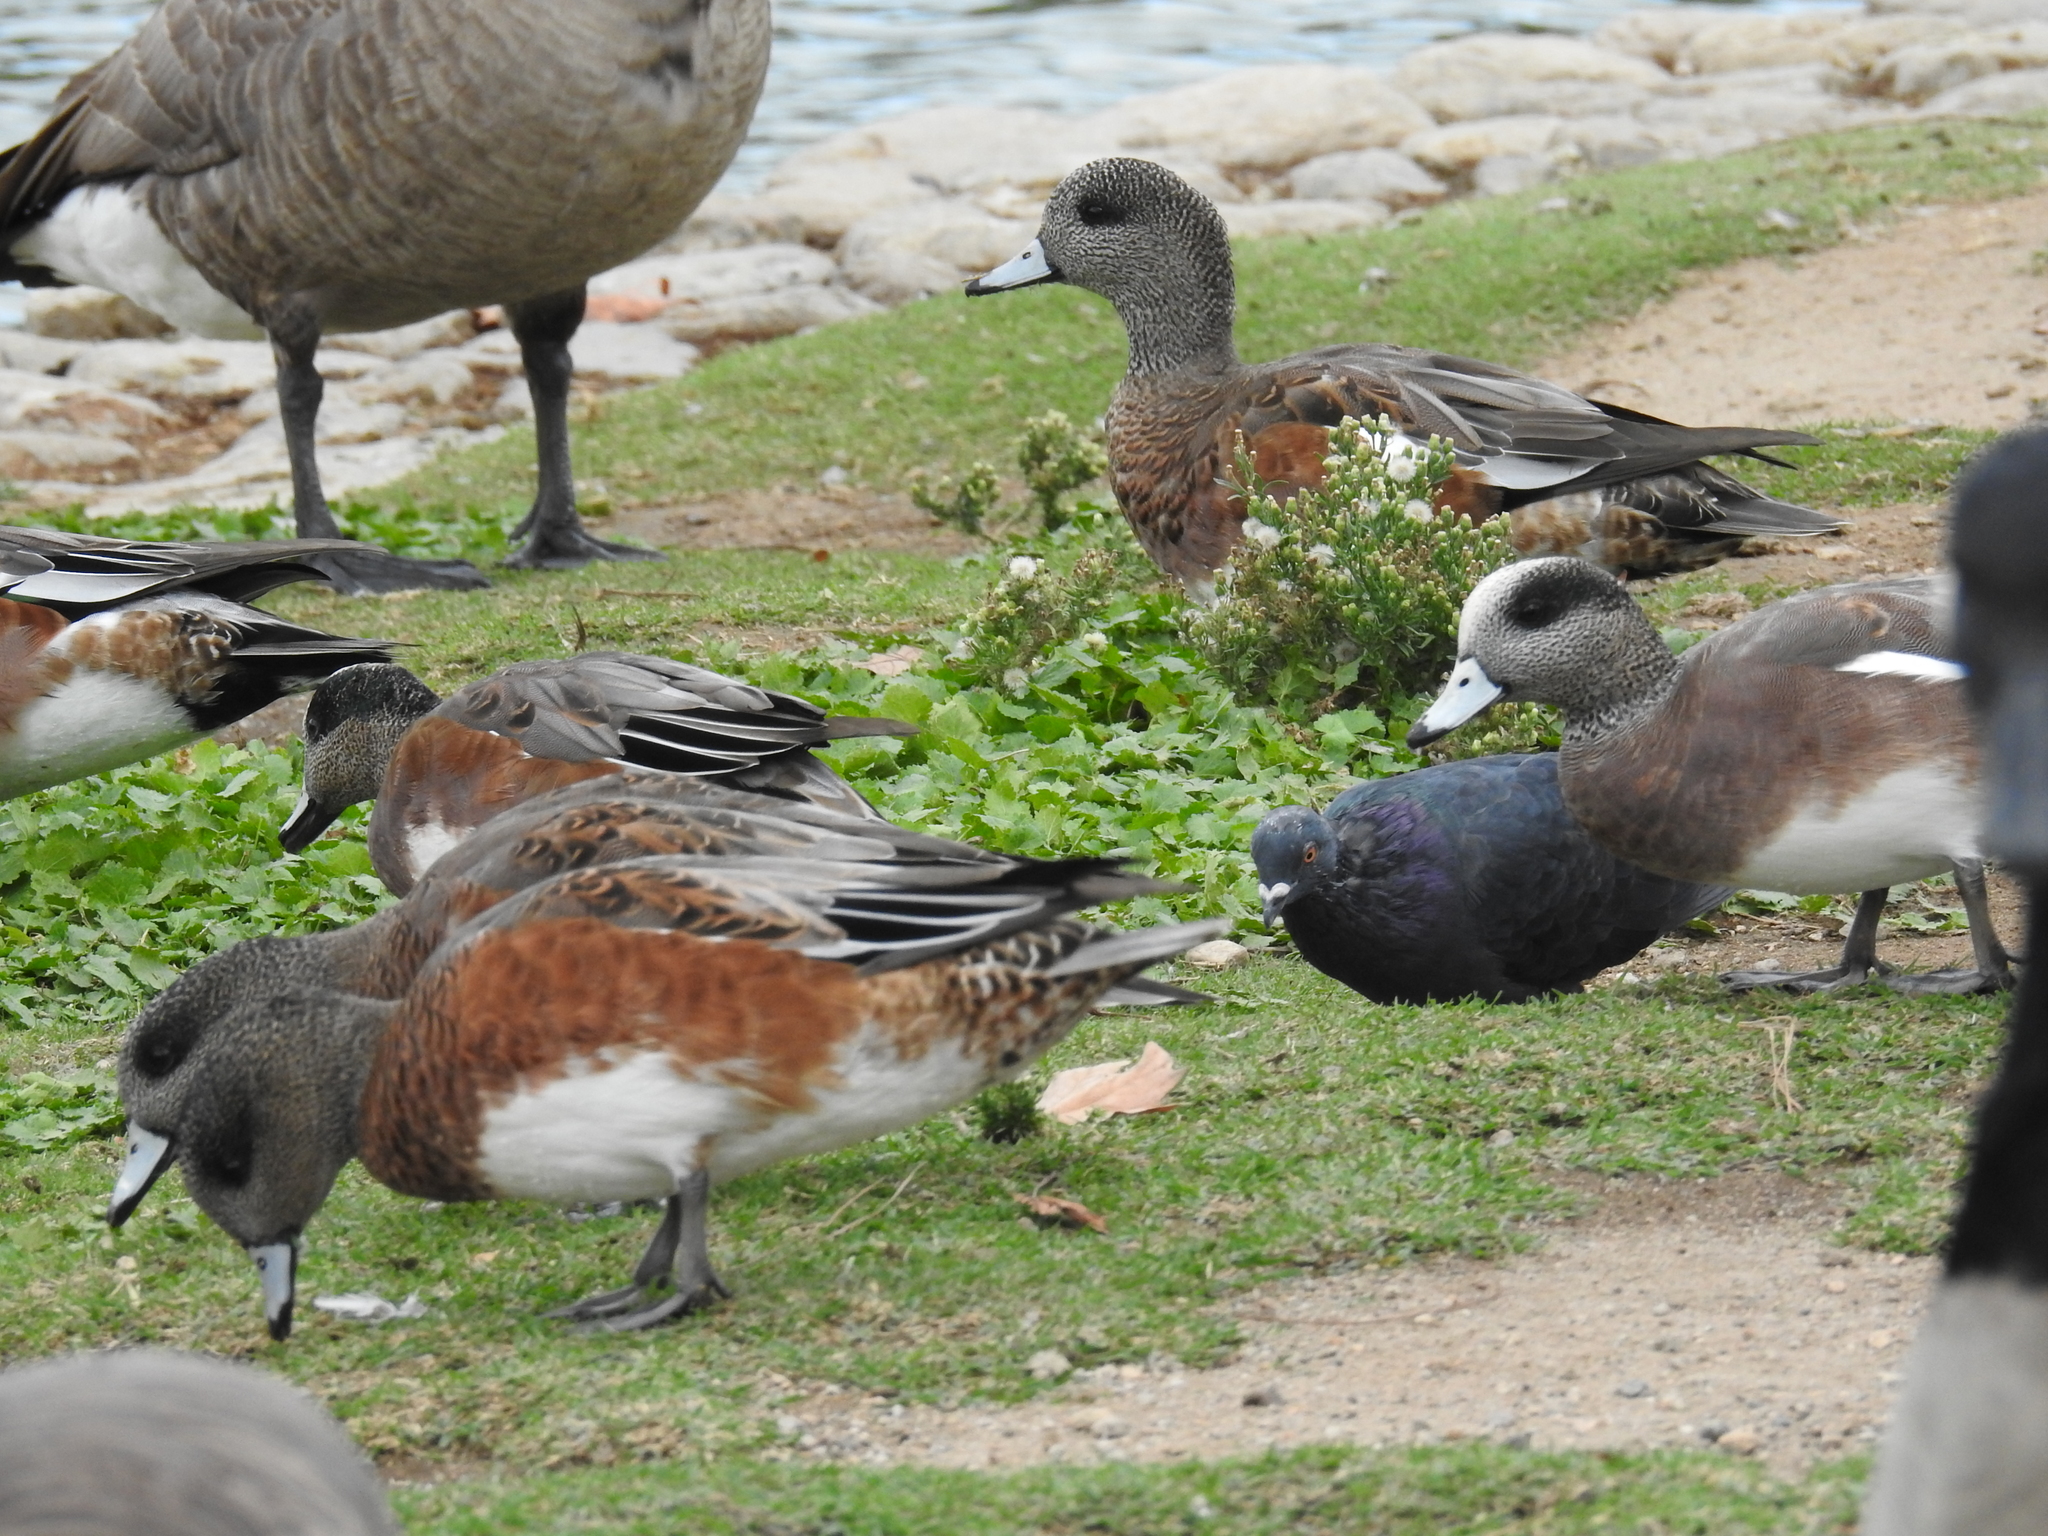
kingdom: Animalia
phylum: Chordata
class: Aves
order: Anseriformes
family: Anatidae
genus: Mareca
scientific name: Mareca americana
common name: American wigeon
